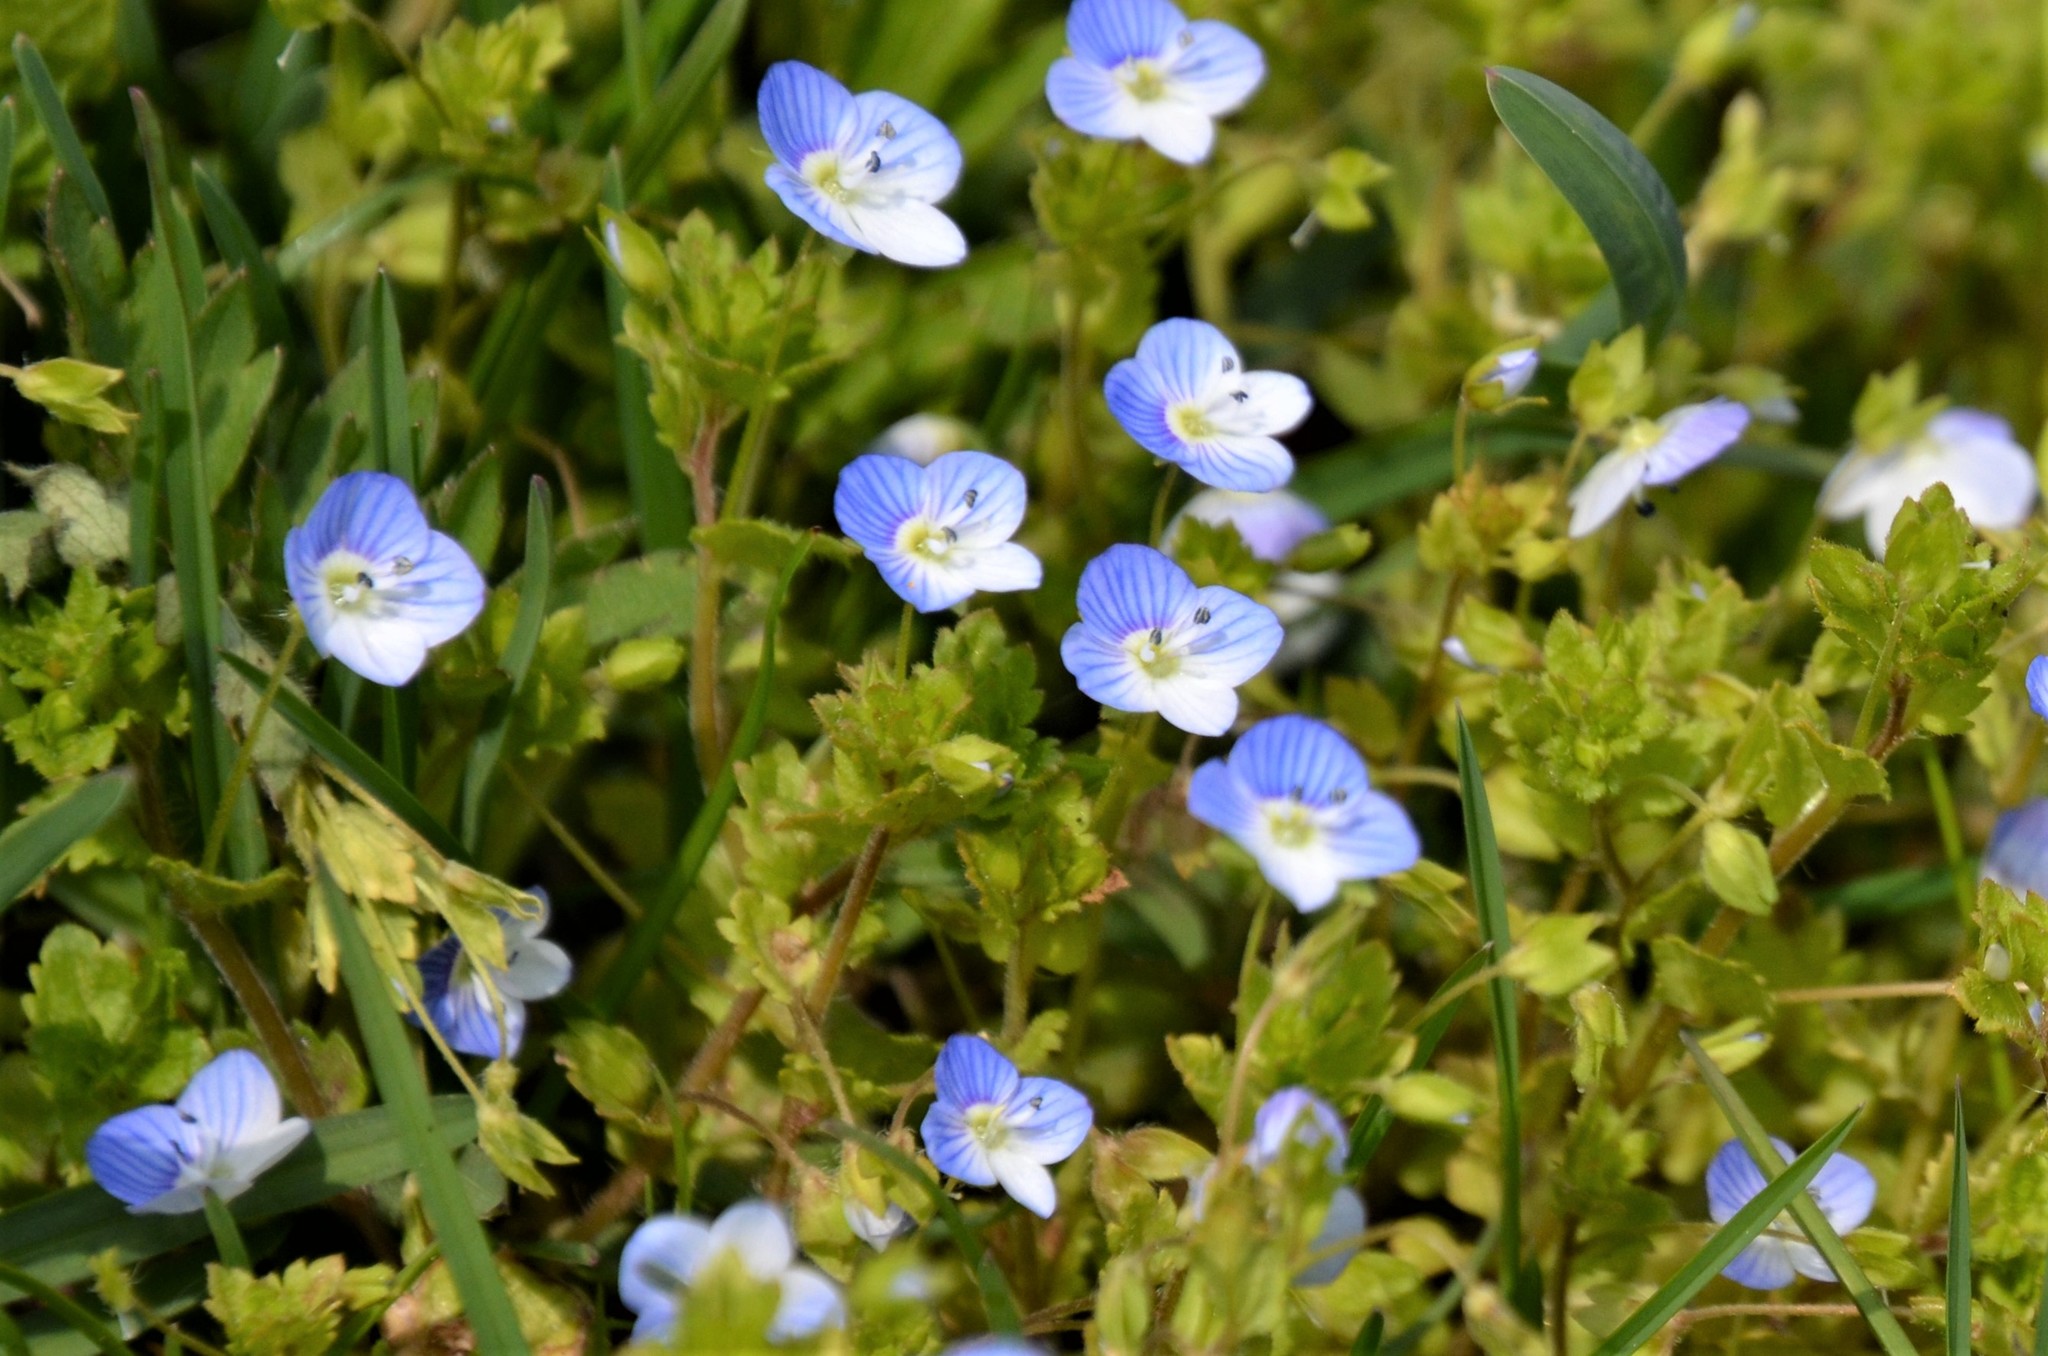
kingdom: Plantae
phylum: Tracheophyta
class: Magnoliopsida
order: Lamiales
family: Plantaginaceae
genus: Veronica
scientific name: Veronica persica
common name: Common field-speedwell
